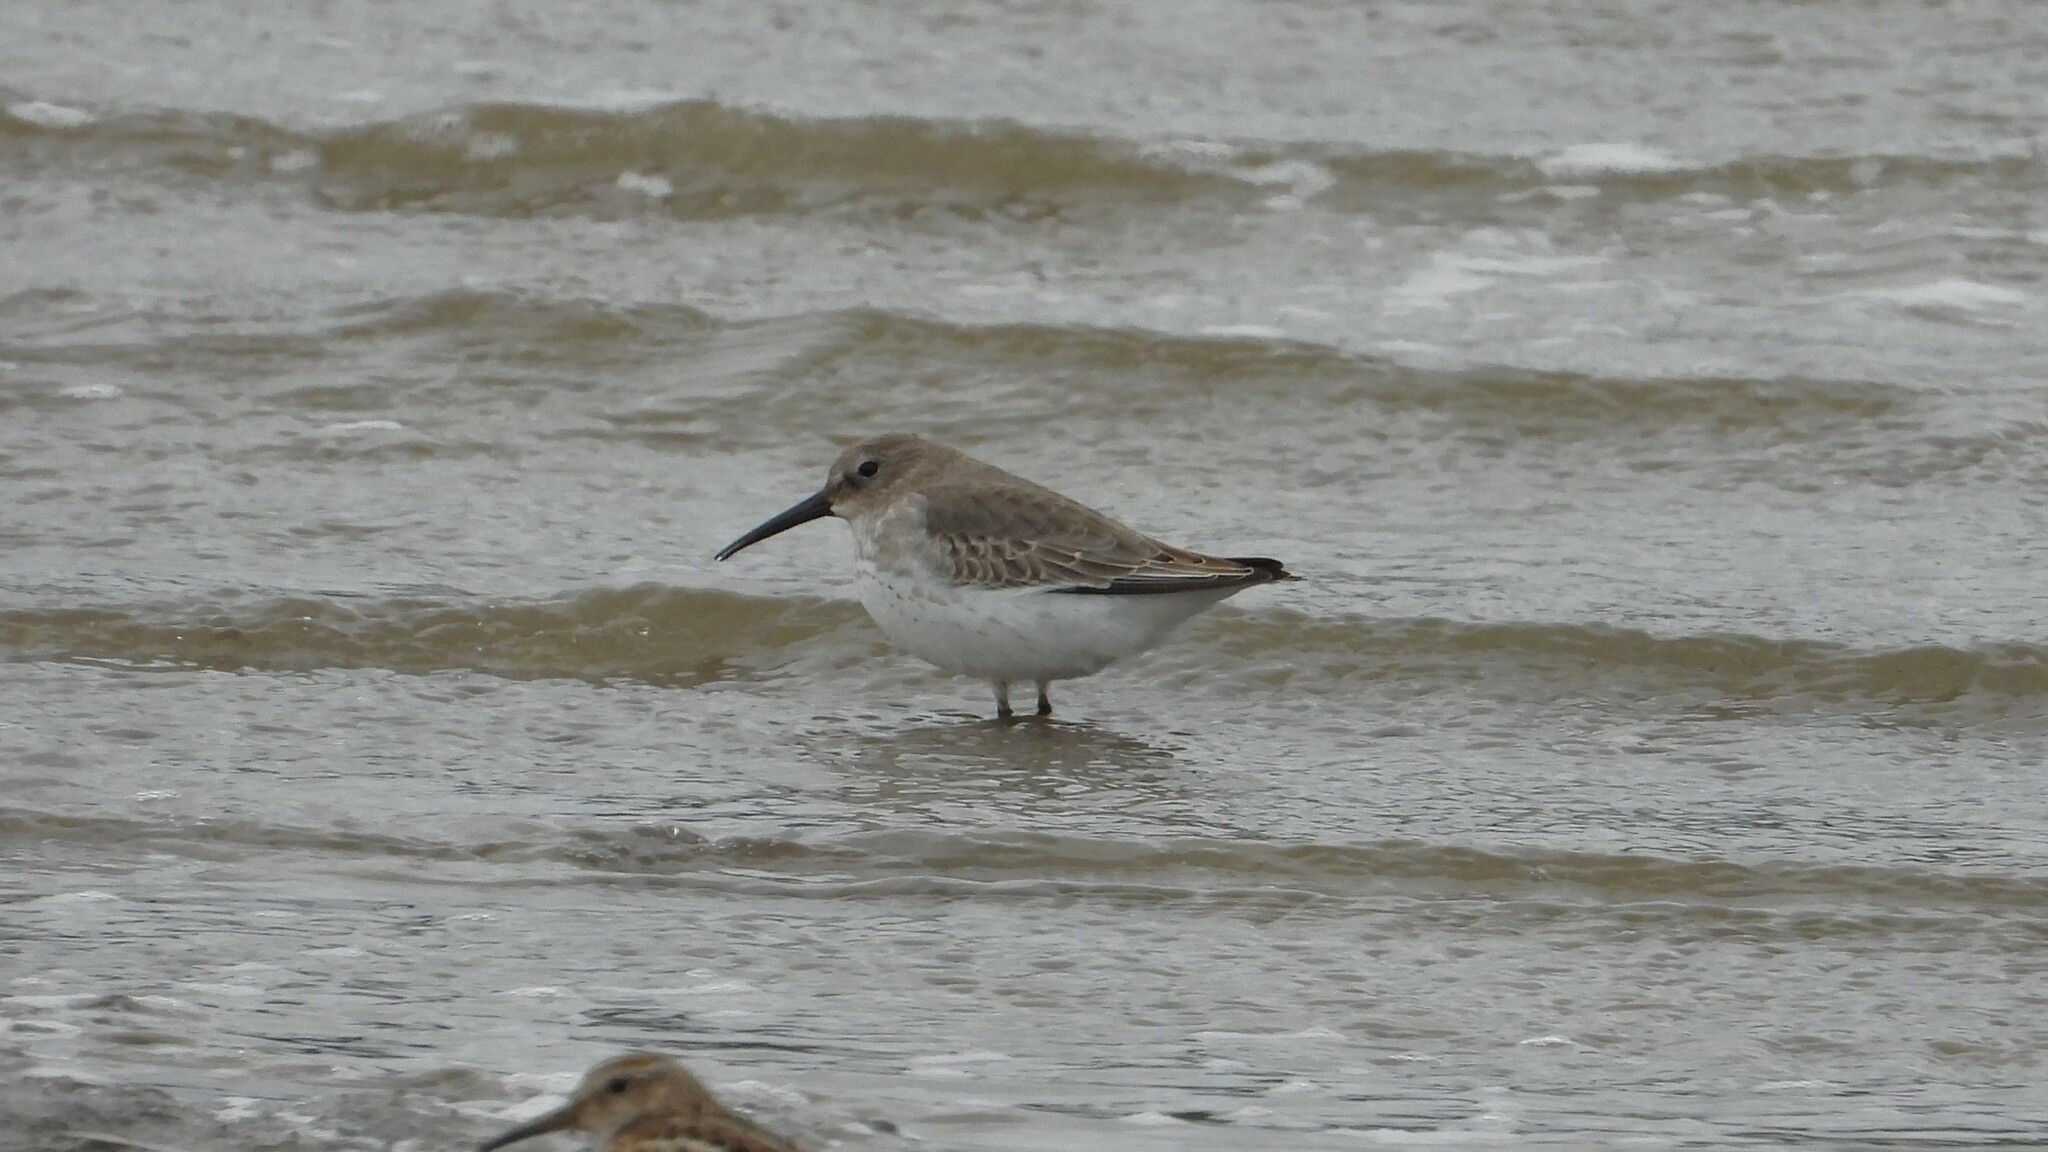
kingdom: Animalia
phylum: Chordata
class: Aves
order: Charadriiformes
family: Scolopacidae
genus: Calidris
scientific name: Calidris alpina
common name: Dunlin
